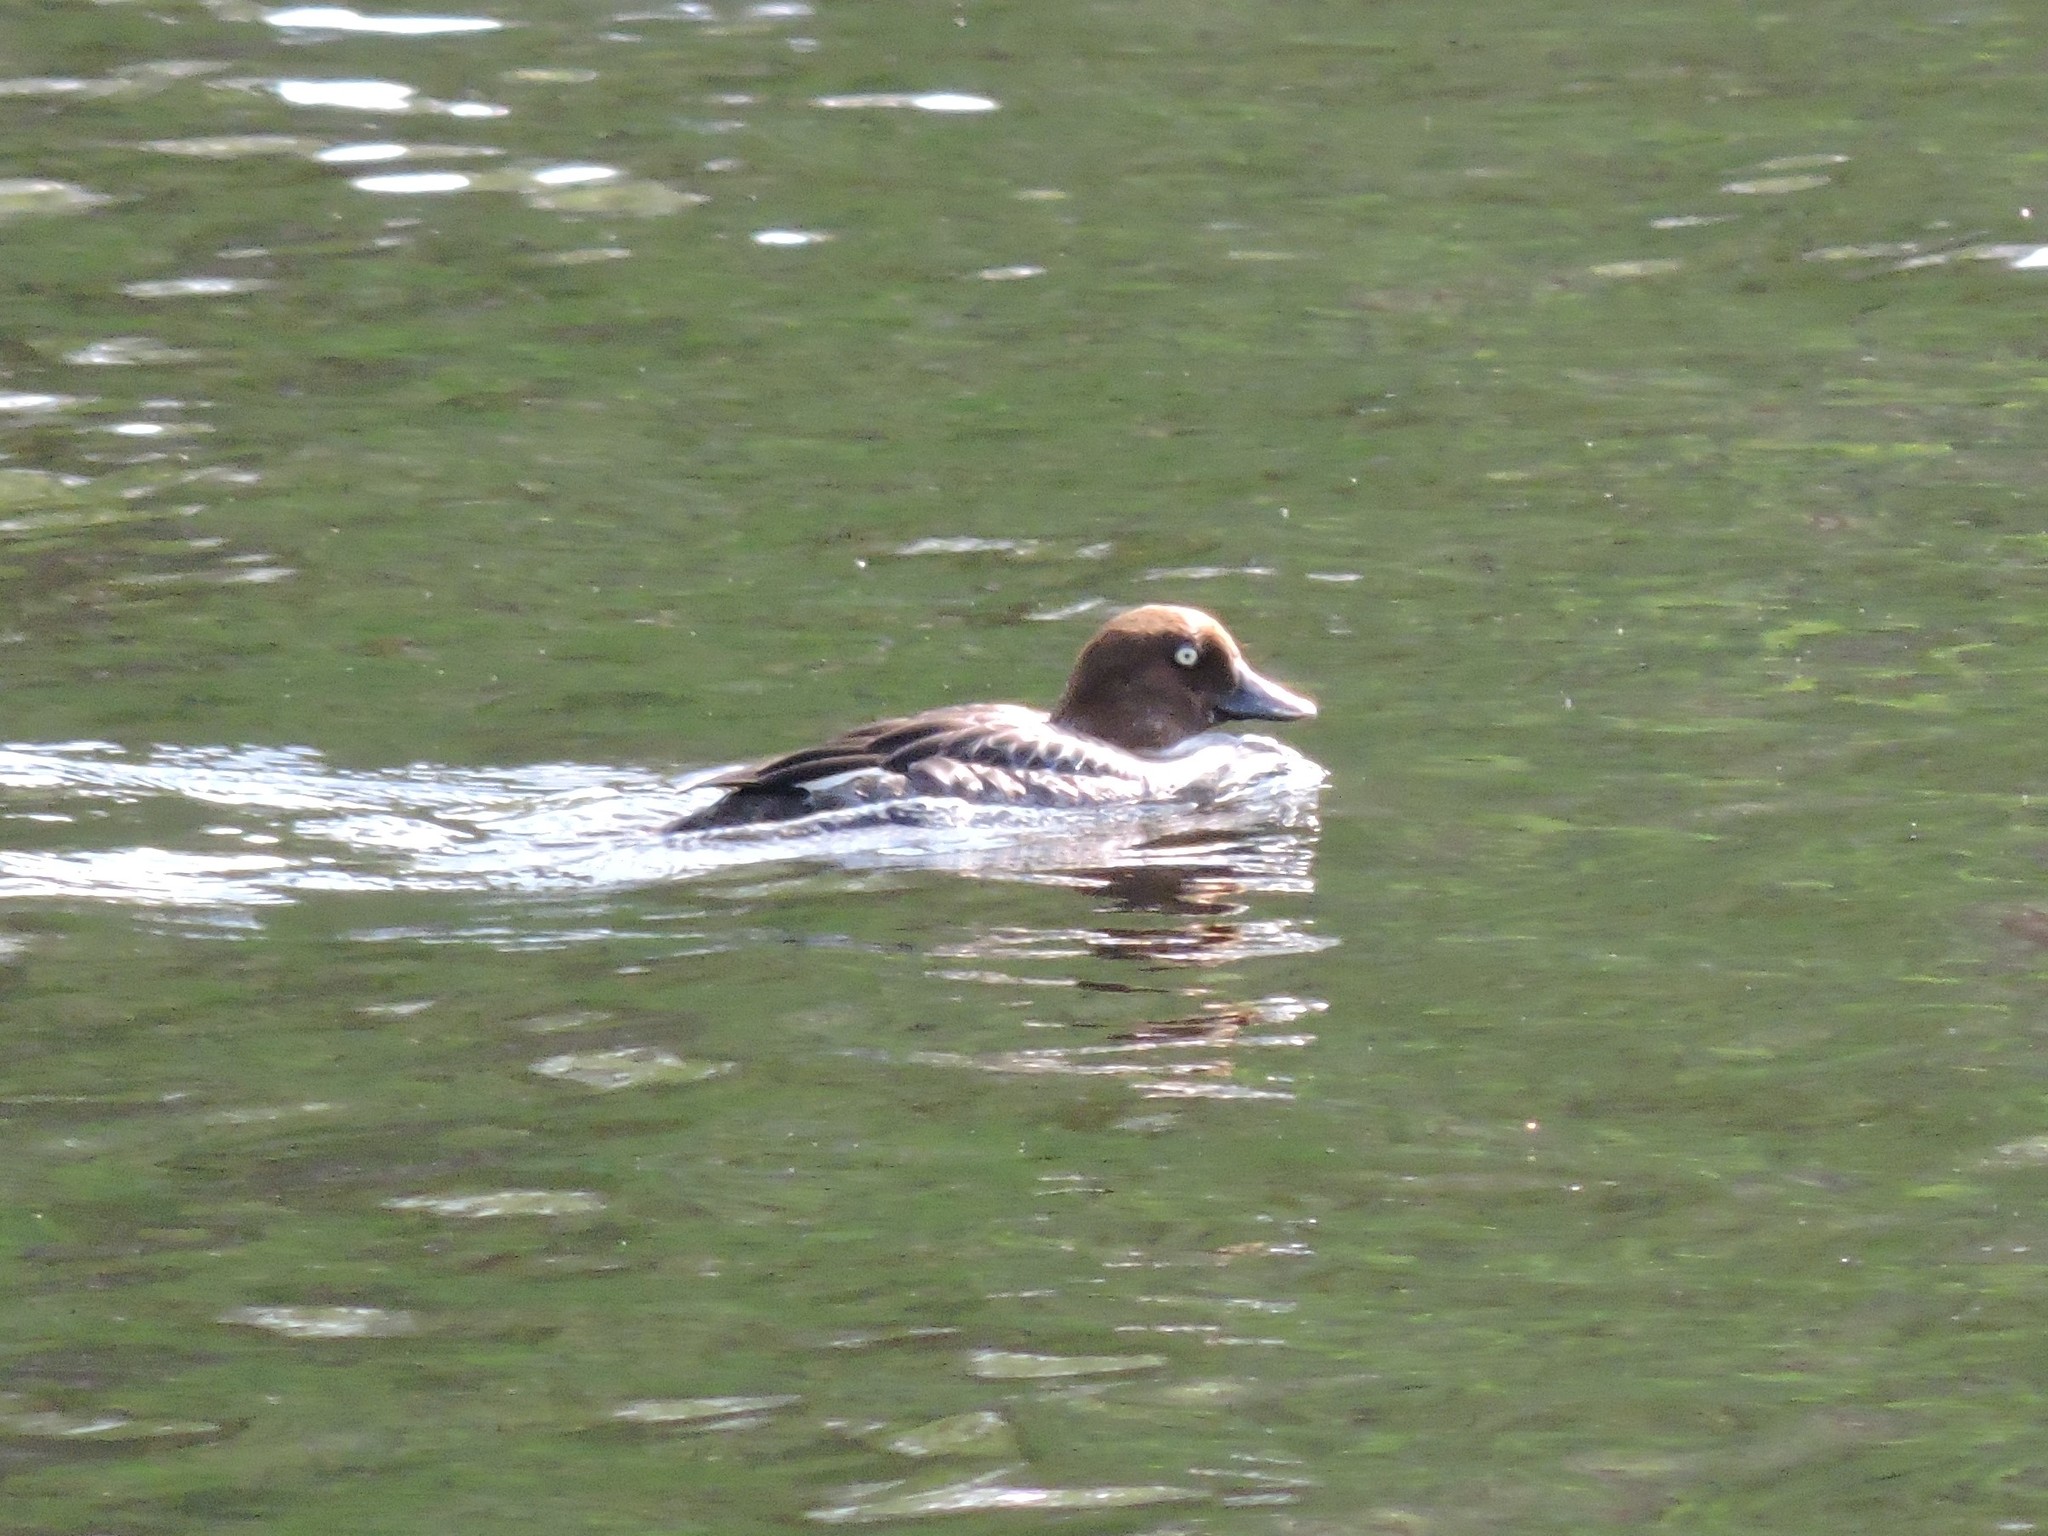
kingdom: Animalia
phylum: Chordata
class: Aves
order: Anseriformes
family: Anatidae
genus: Bucephala
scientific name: Bucephala clangula
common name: Common goldeneye
